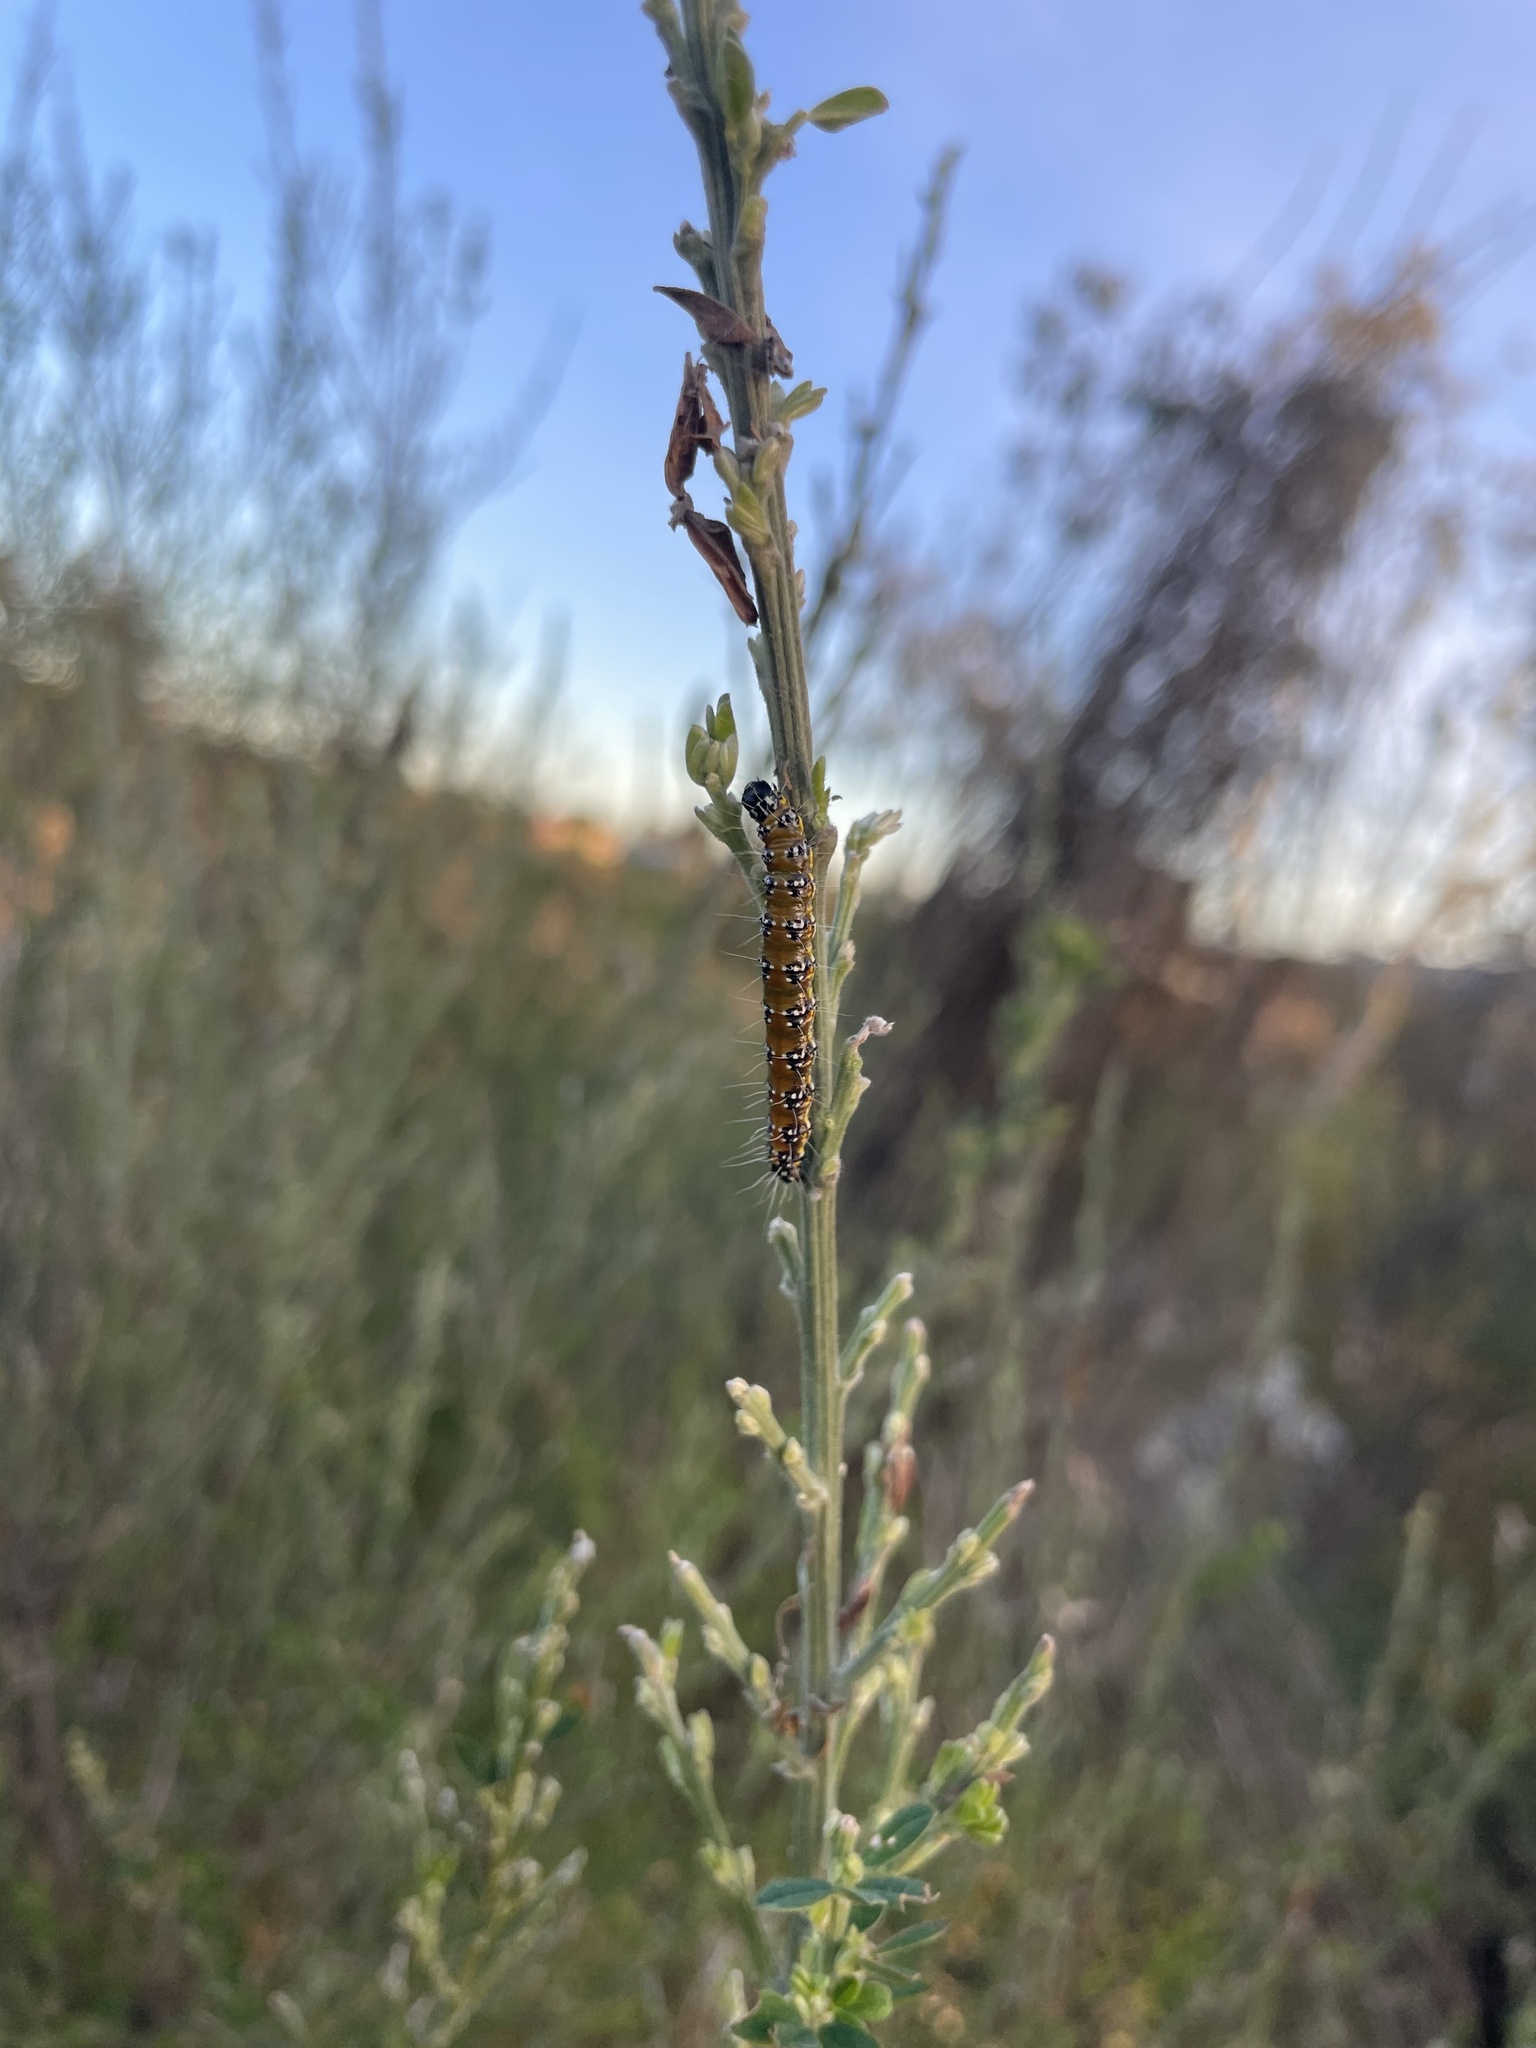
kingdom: Animalia
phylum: Arthropoda
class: Insecta
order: Lepidoptera
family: Crambidae
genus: Uresiphita
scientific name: Uresiphita reversalis
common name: Genista broom moth
